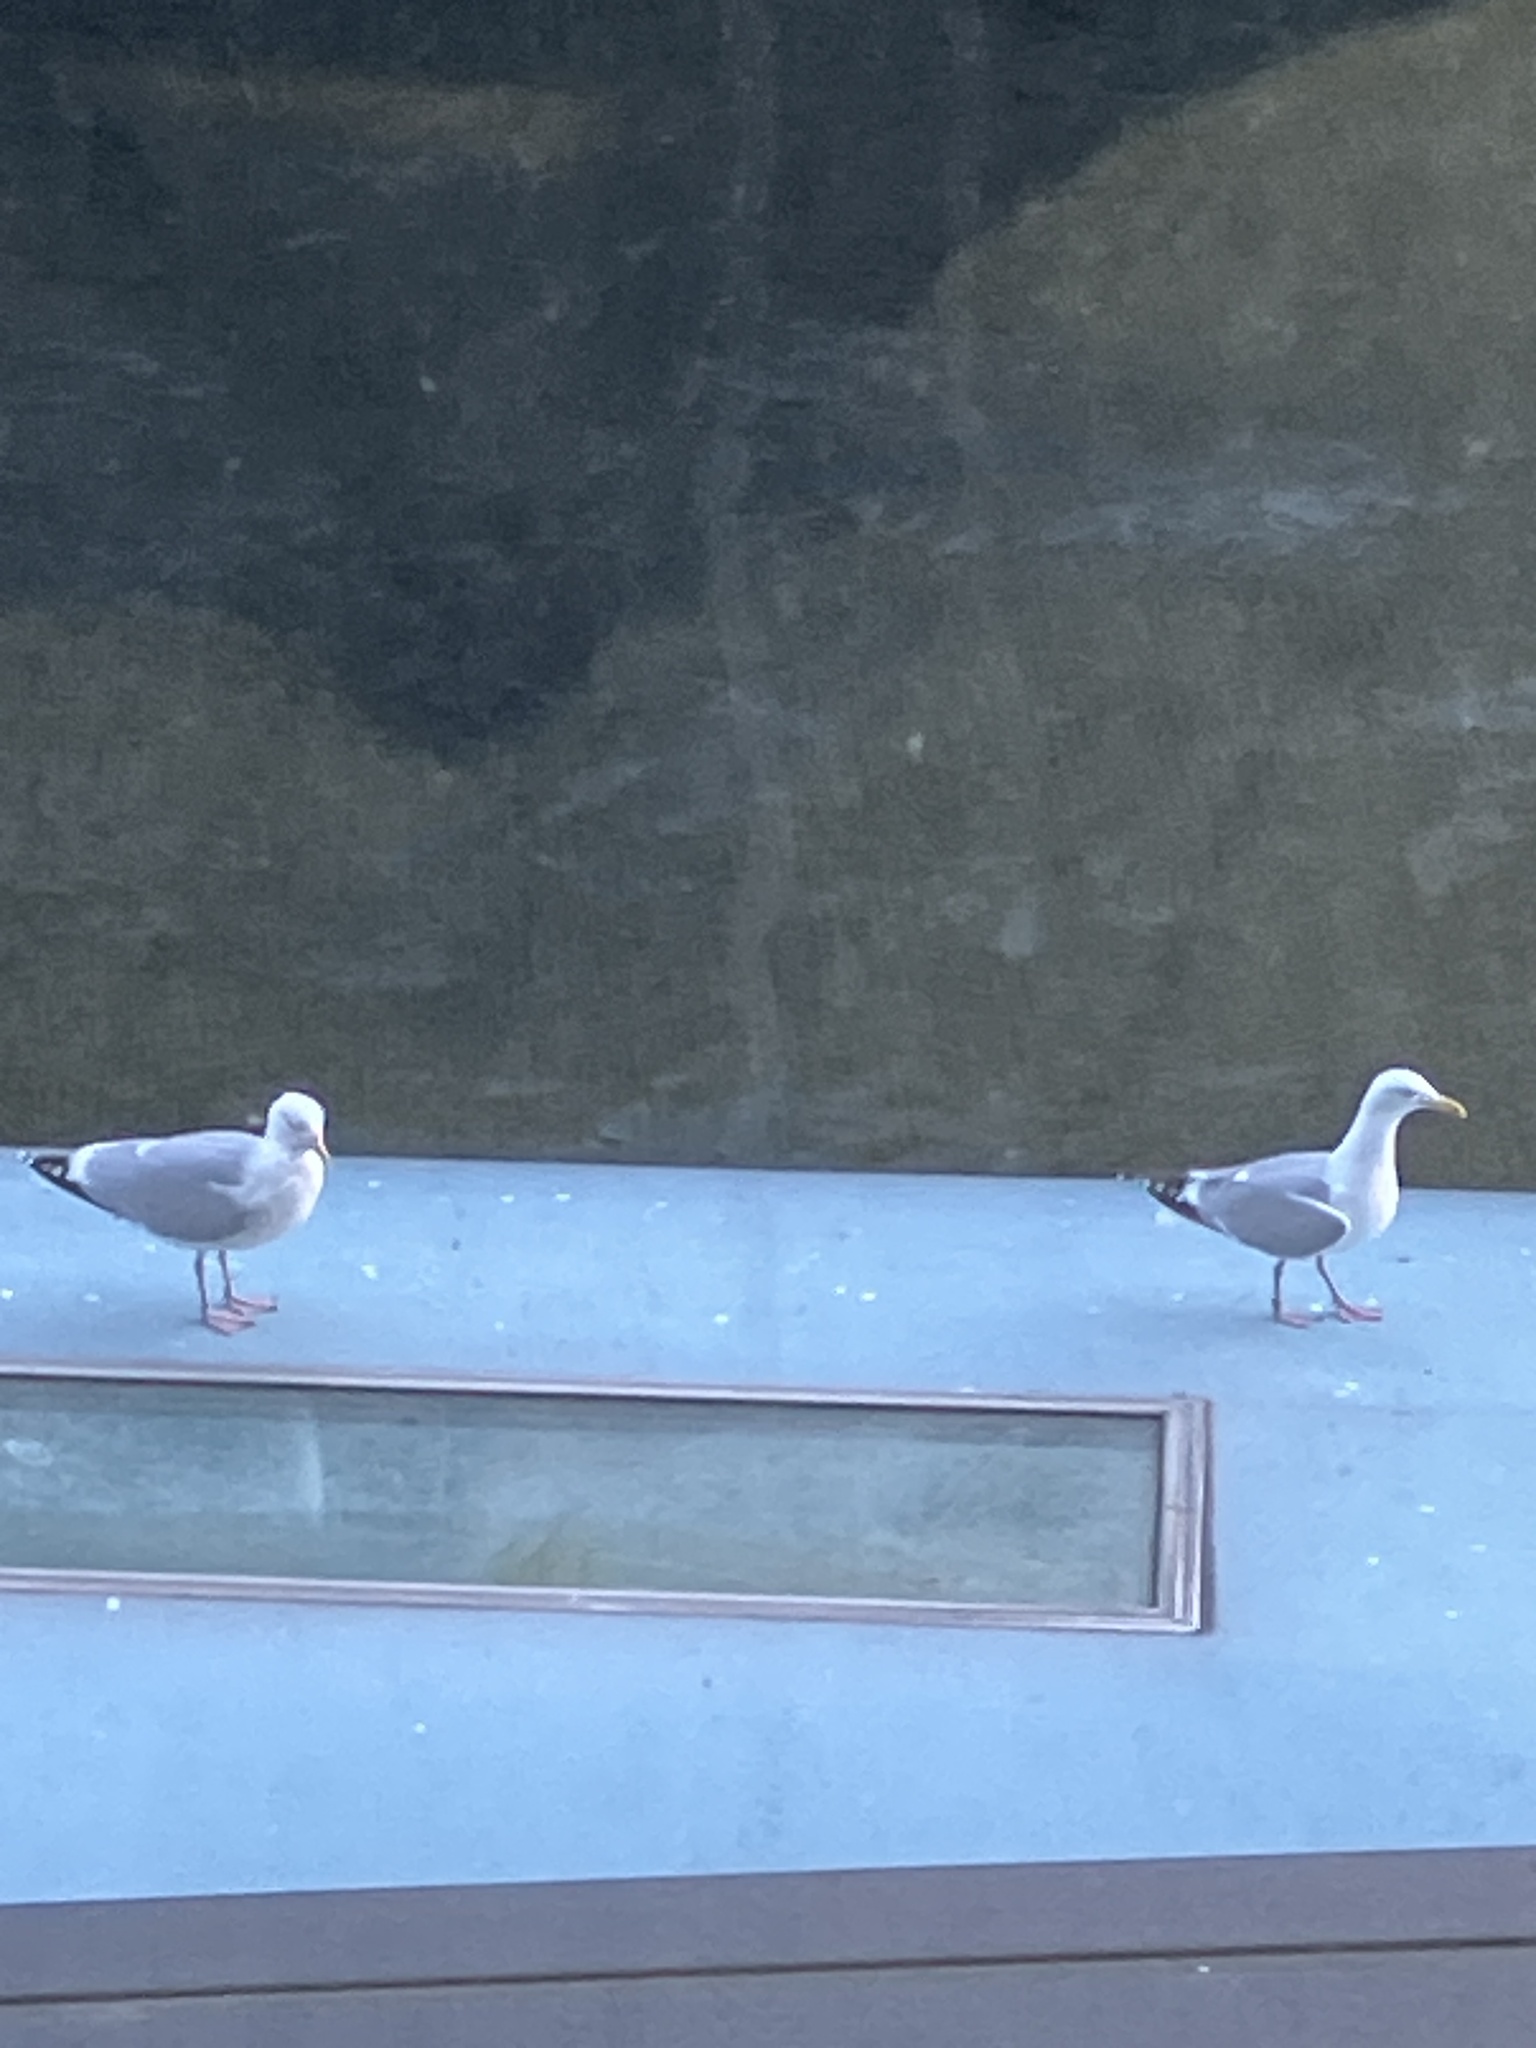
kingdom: Animalia
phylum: Chordata
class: Aves
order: Charadriiformes
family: Laridae
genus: Larus
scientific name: Larus argentatus
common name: Herring gull
